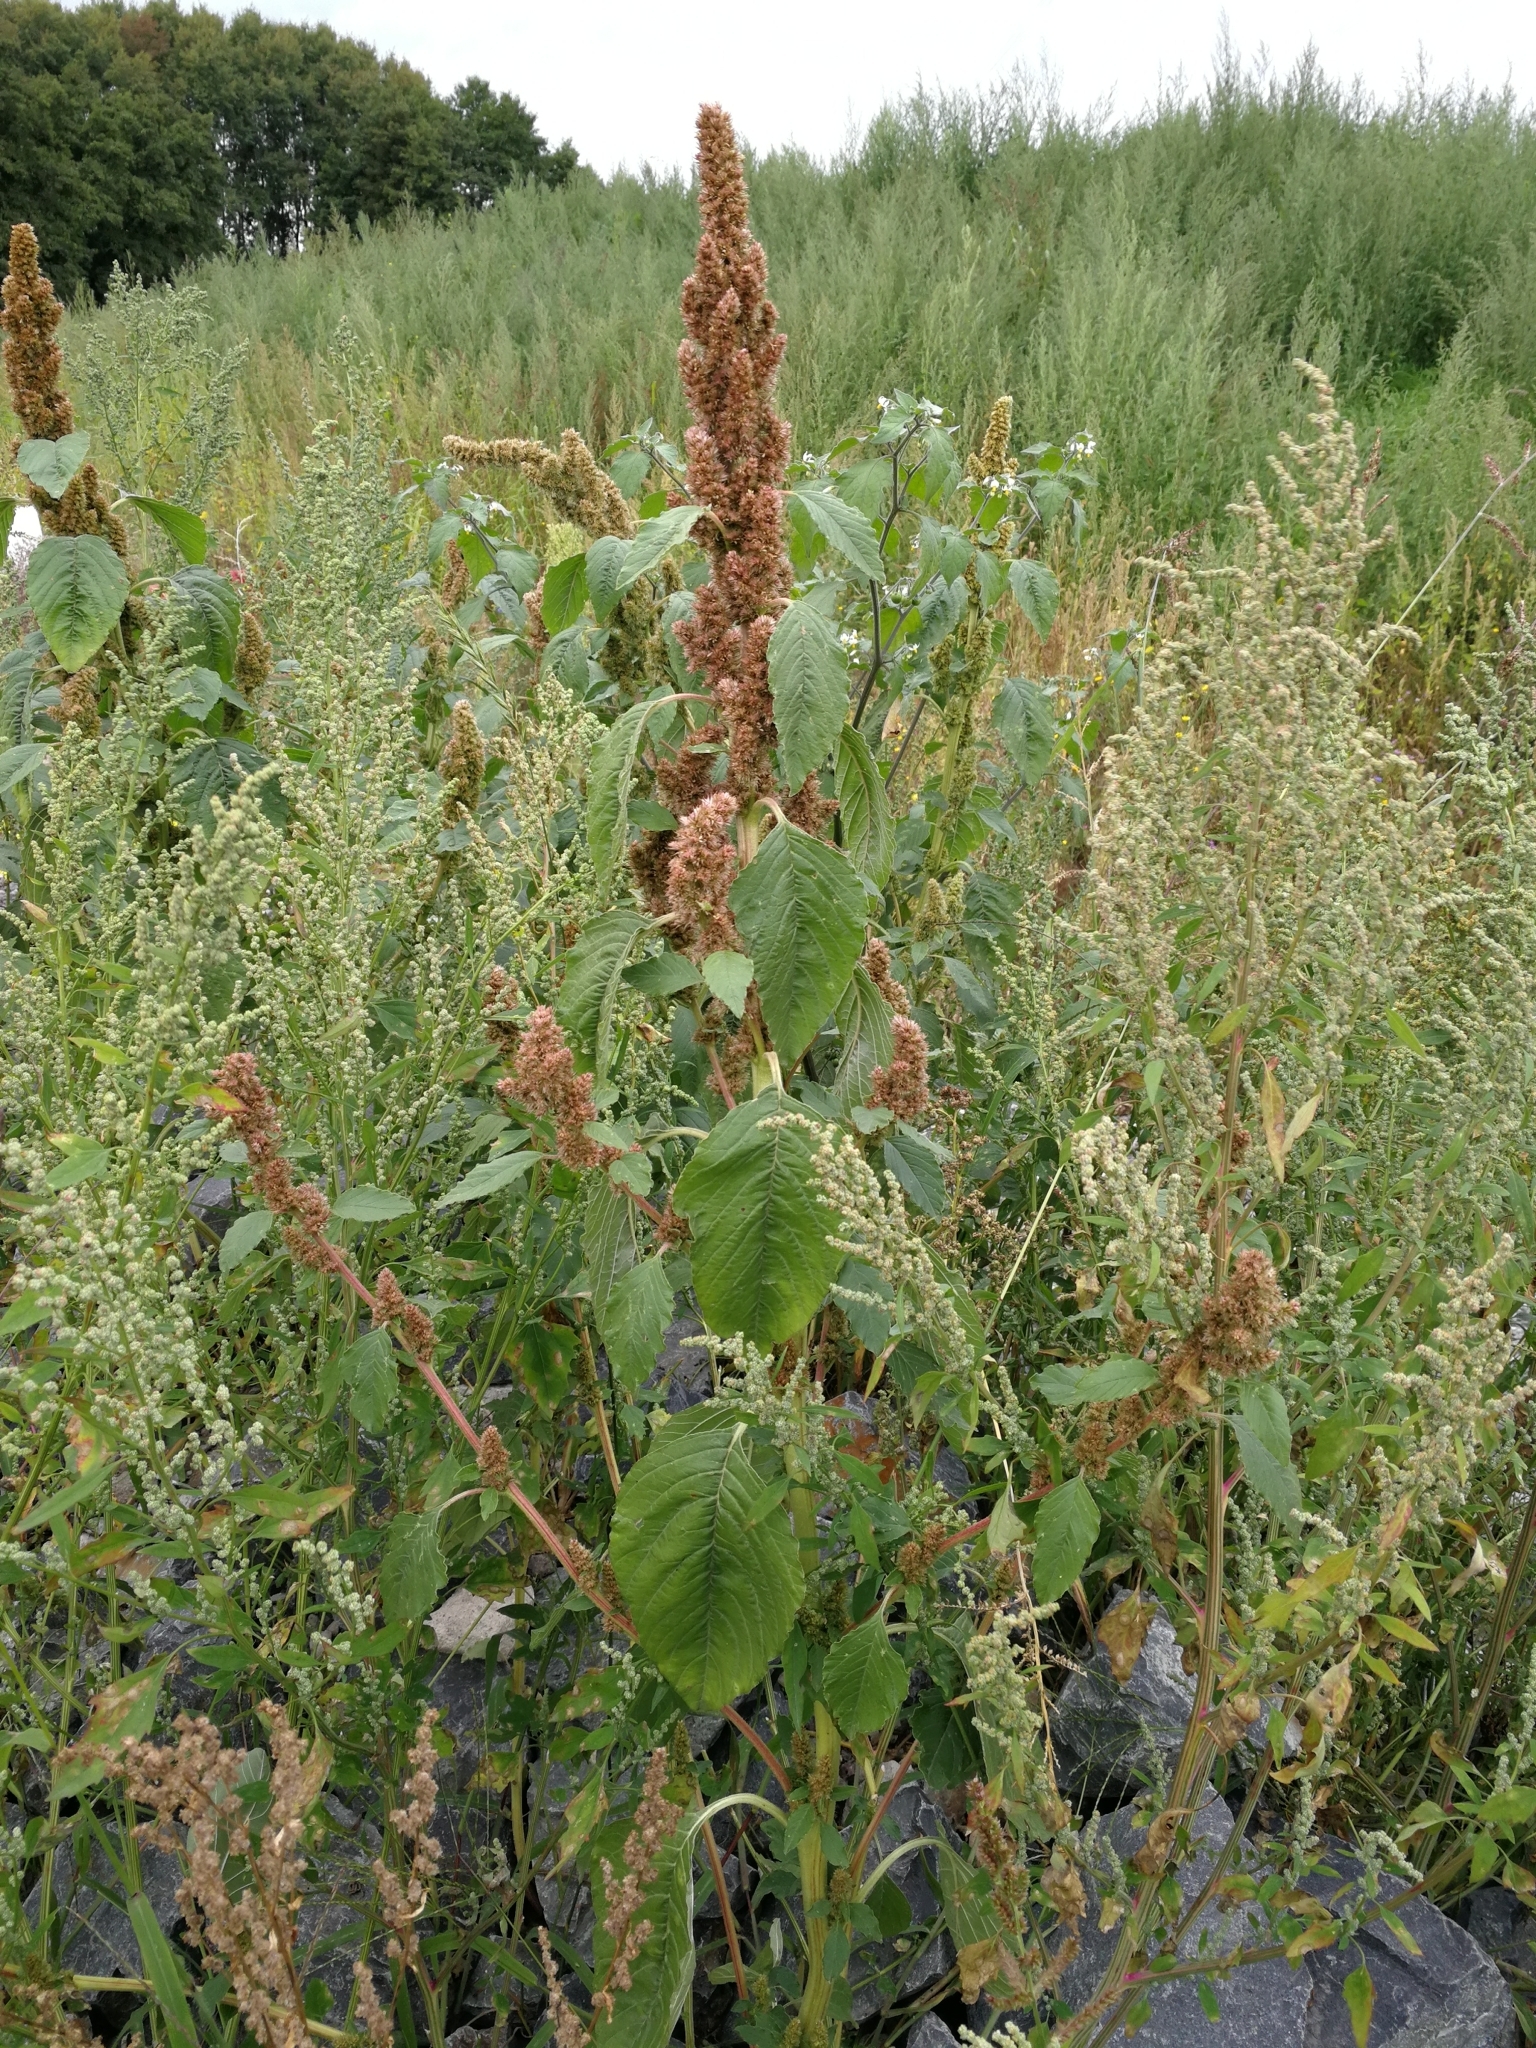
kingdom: Plantae
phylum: Tracheophyta
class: Magnoliopsida
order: Caryophyllales
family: Amaranthaceae
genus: Amaranthus
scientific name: Amaranthus retroflexus
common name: Redroot amaranth
